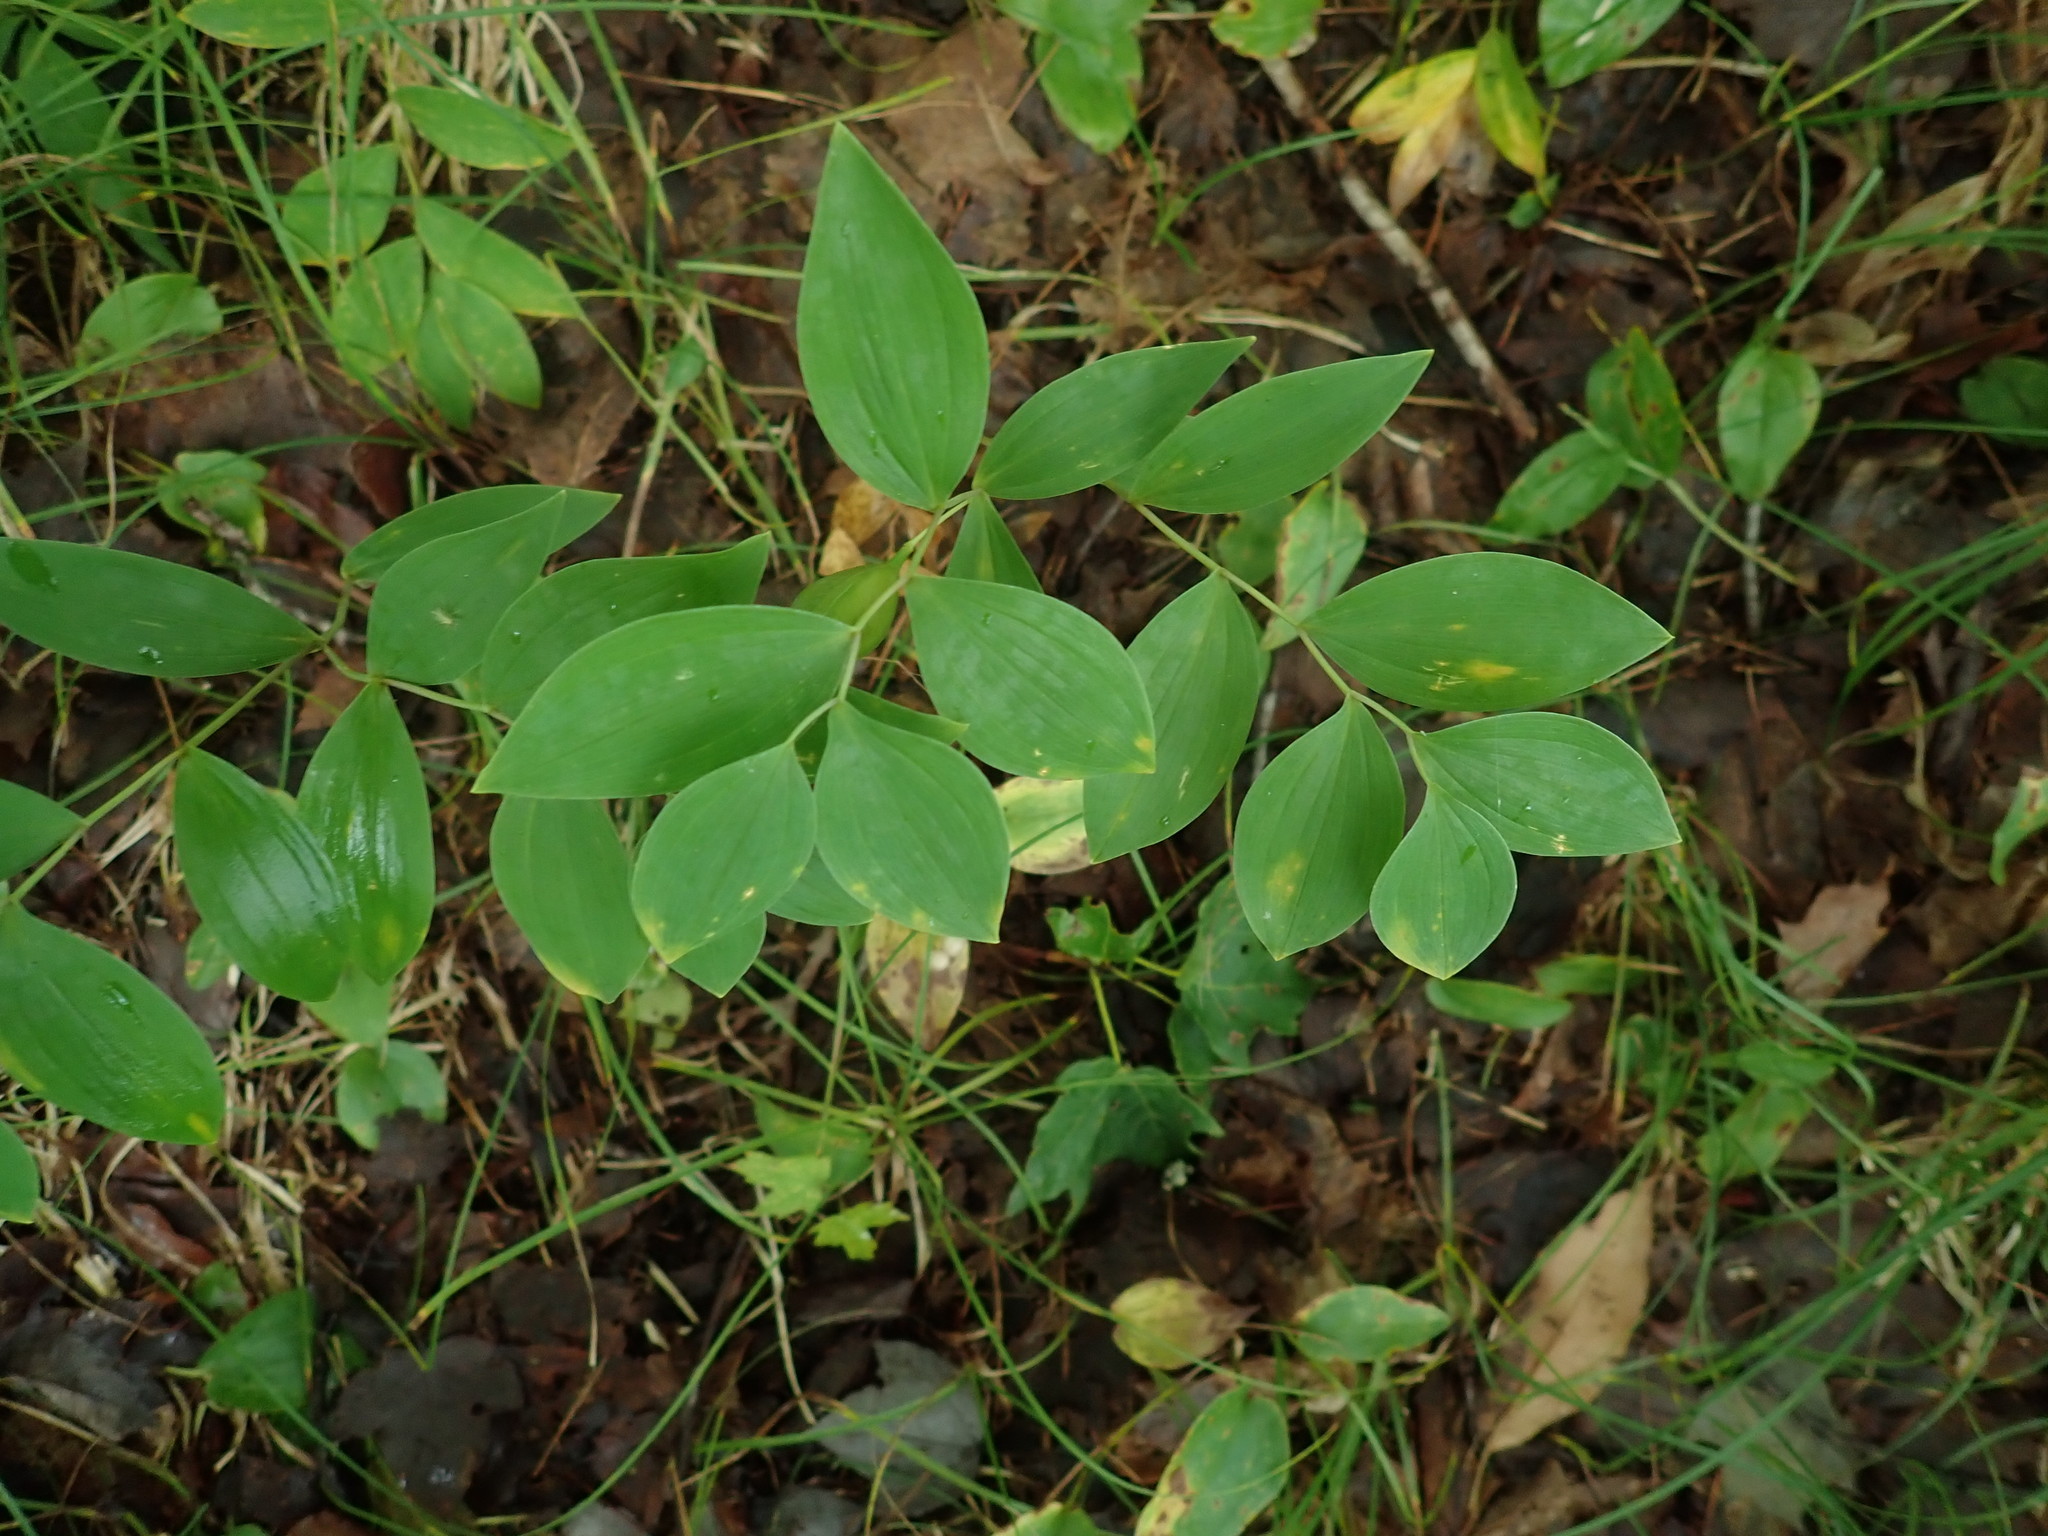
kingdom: Plantae
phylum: Tracheophyta
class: Liliopsida
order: Liliales
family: Colchicaceae
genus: Uvularia
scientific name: Uvularia sessilifolia
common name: Straw-lily
